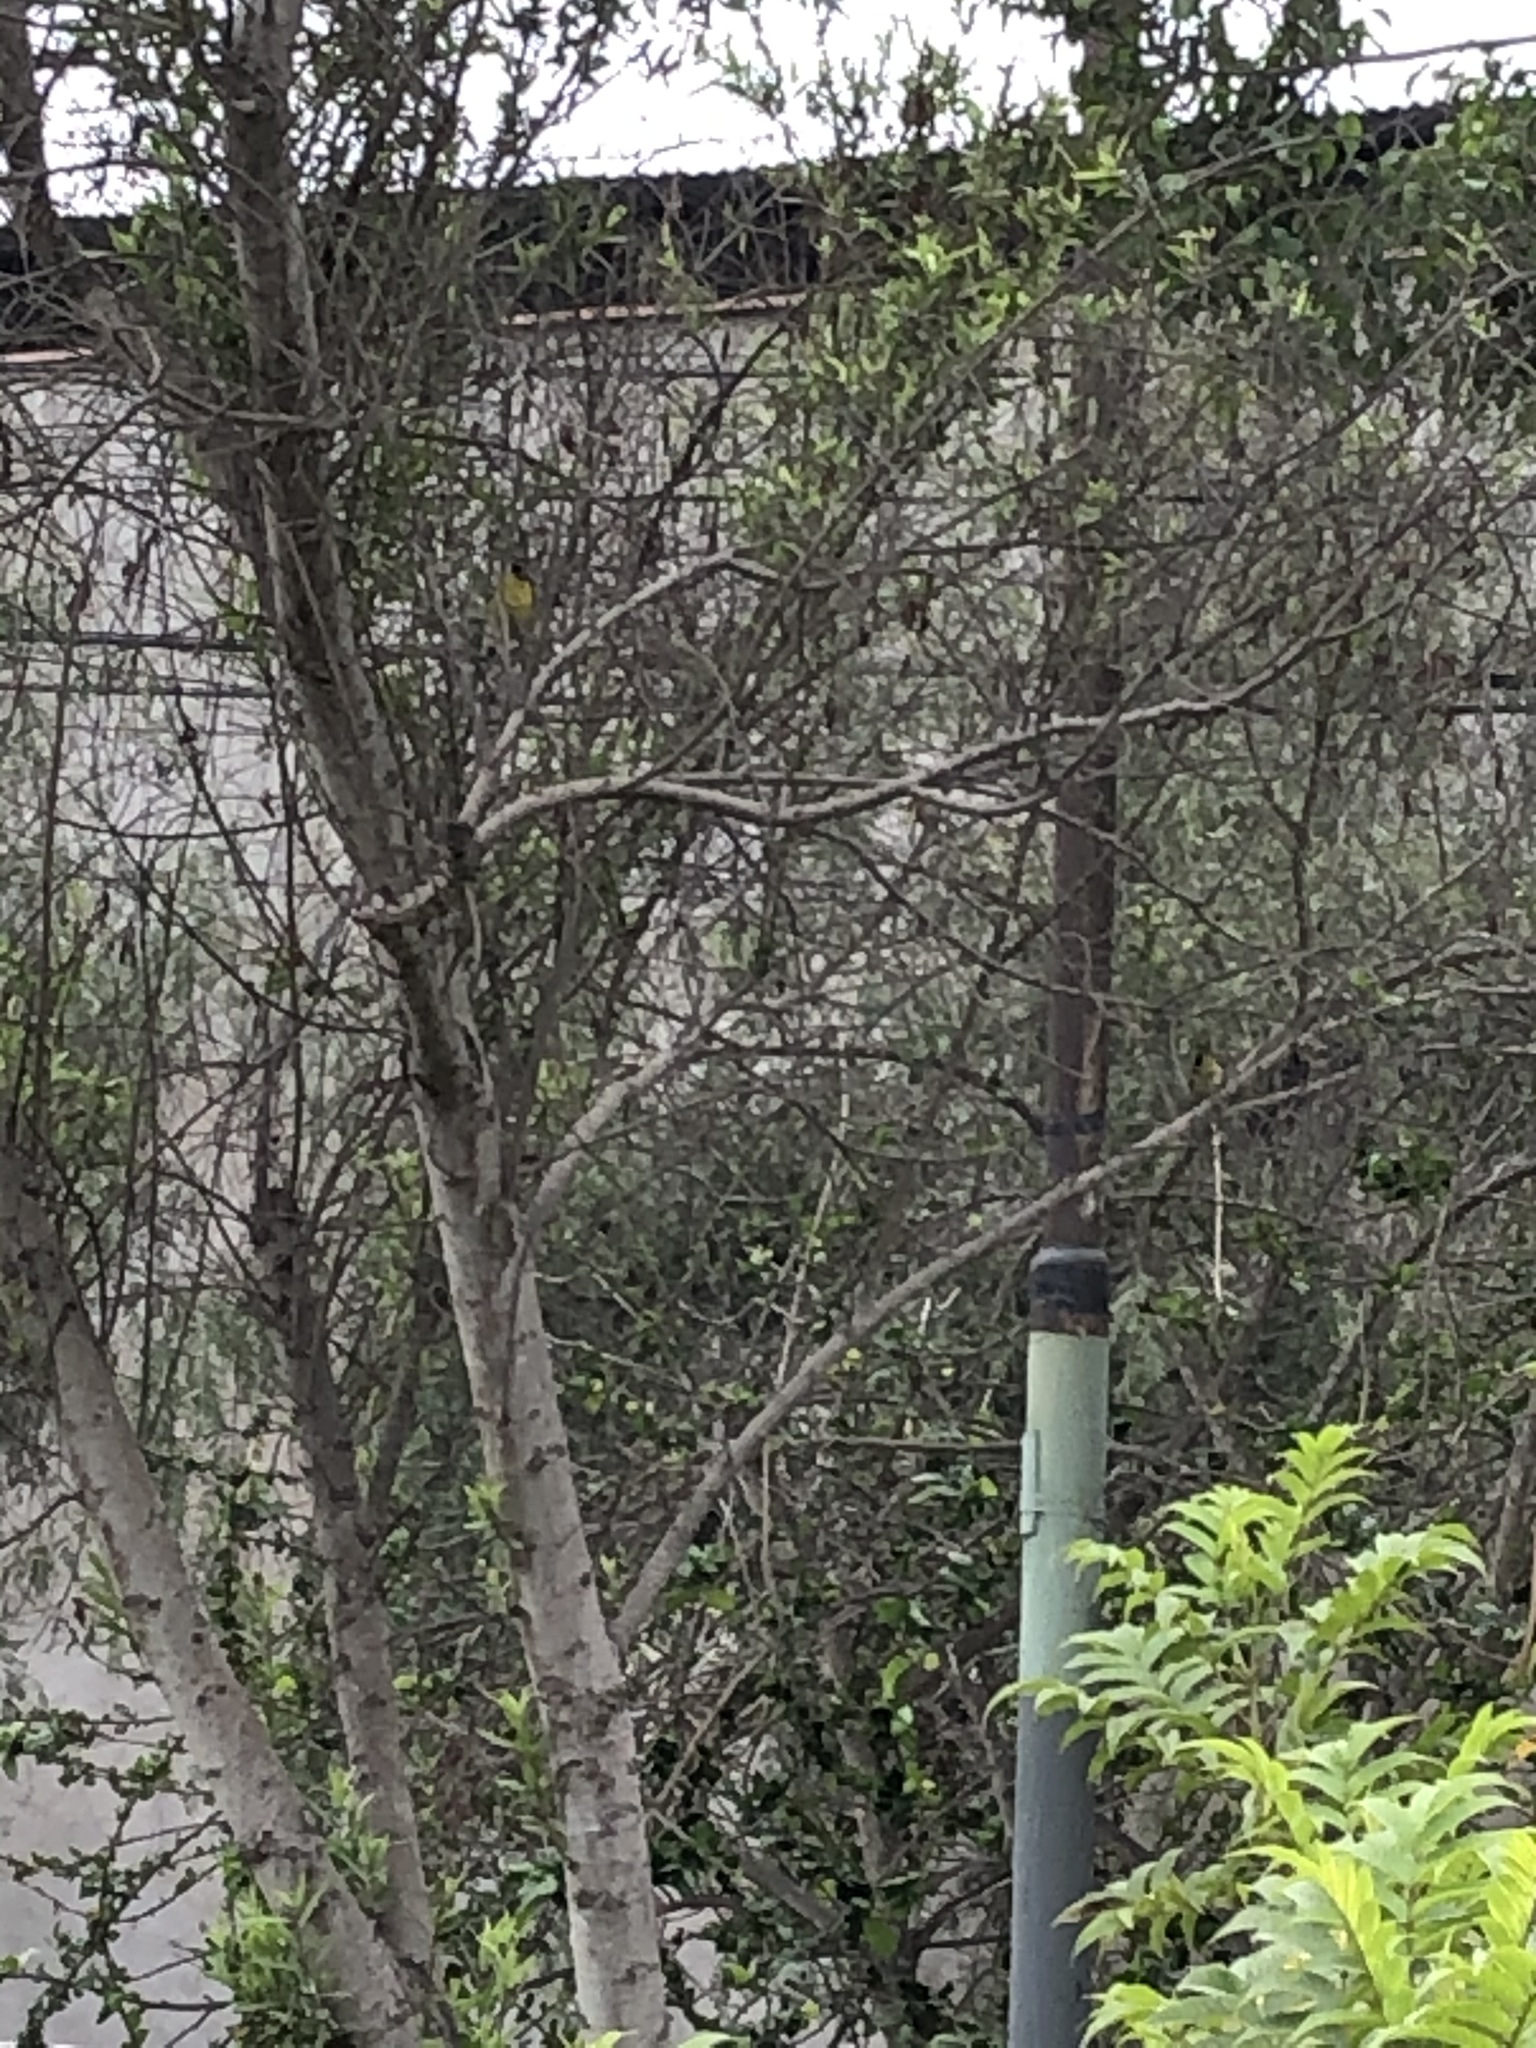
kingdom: Animalia
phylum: Chordata
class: Aves
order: Passeriformes
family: Fringillidae
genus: Spinus
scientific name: Spinus magellanicus
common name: Hooded siskin
